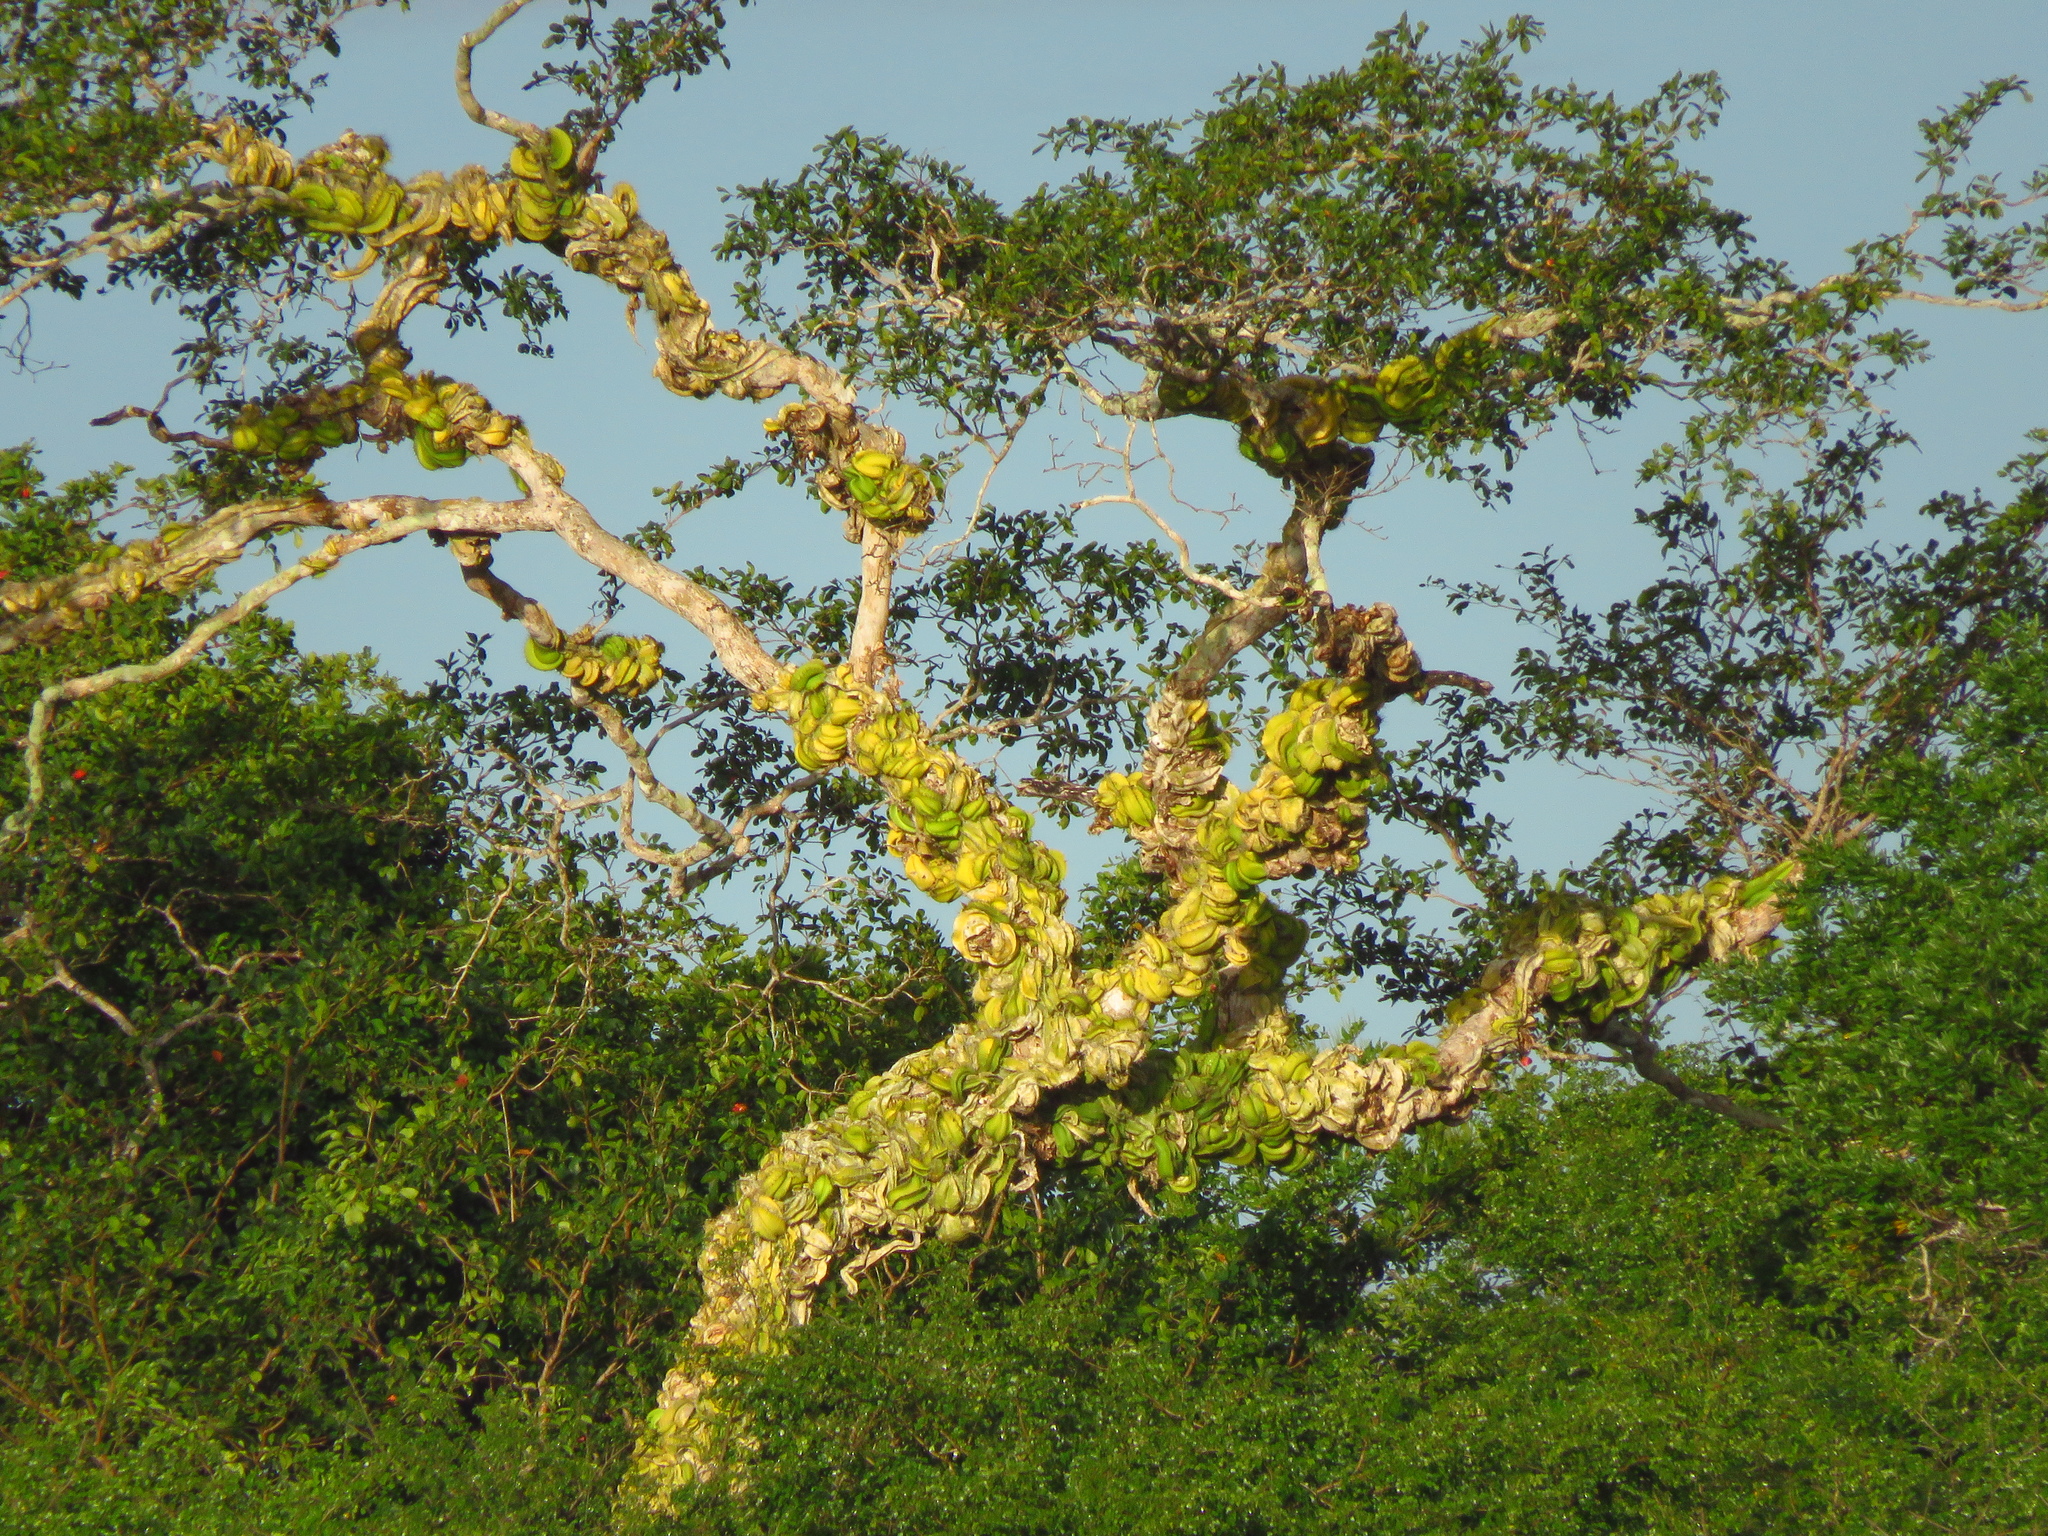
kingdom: Plantae
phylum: Tracheophyta
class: Magnoliopsida
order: Caryophyllales
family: Cactaceae
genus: Deamia
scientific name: Deamia testudo
